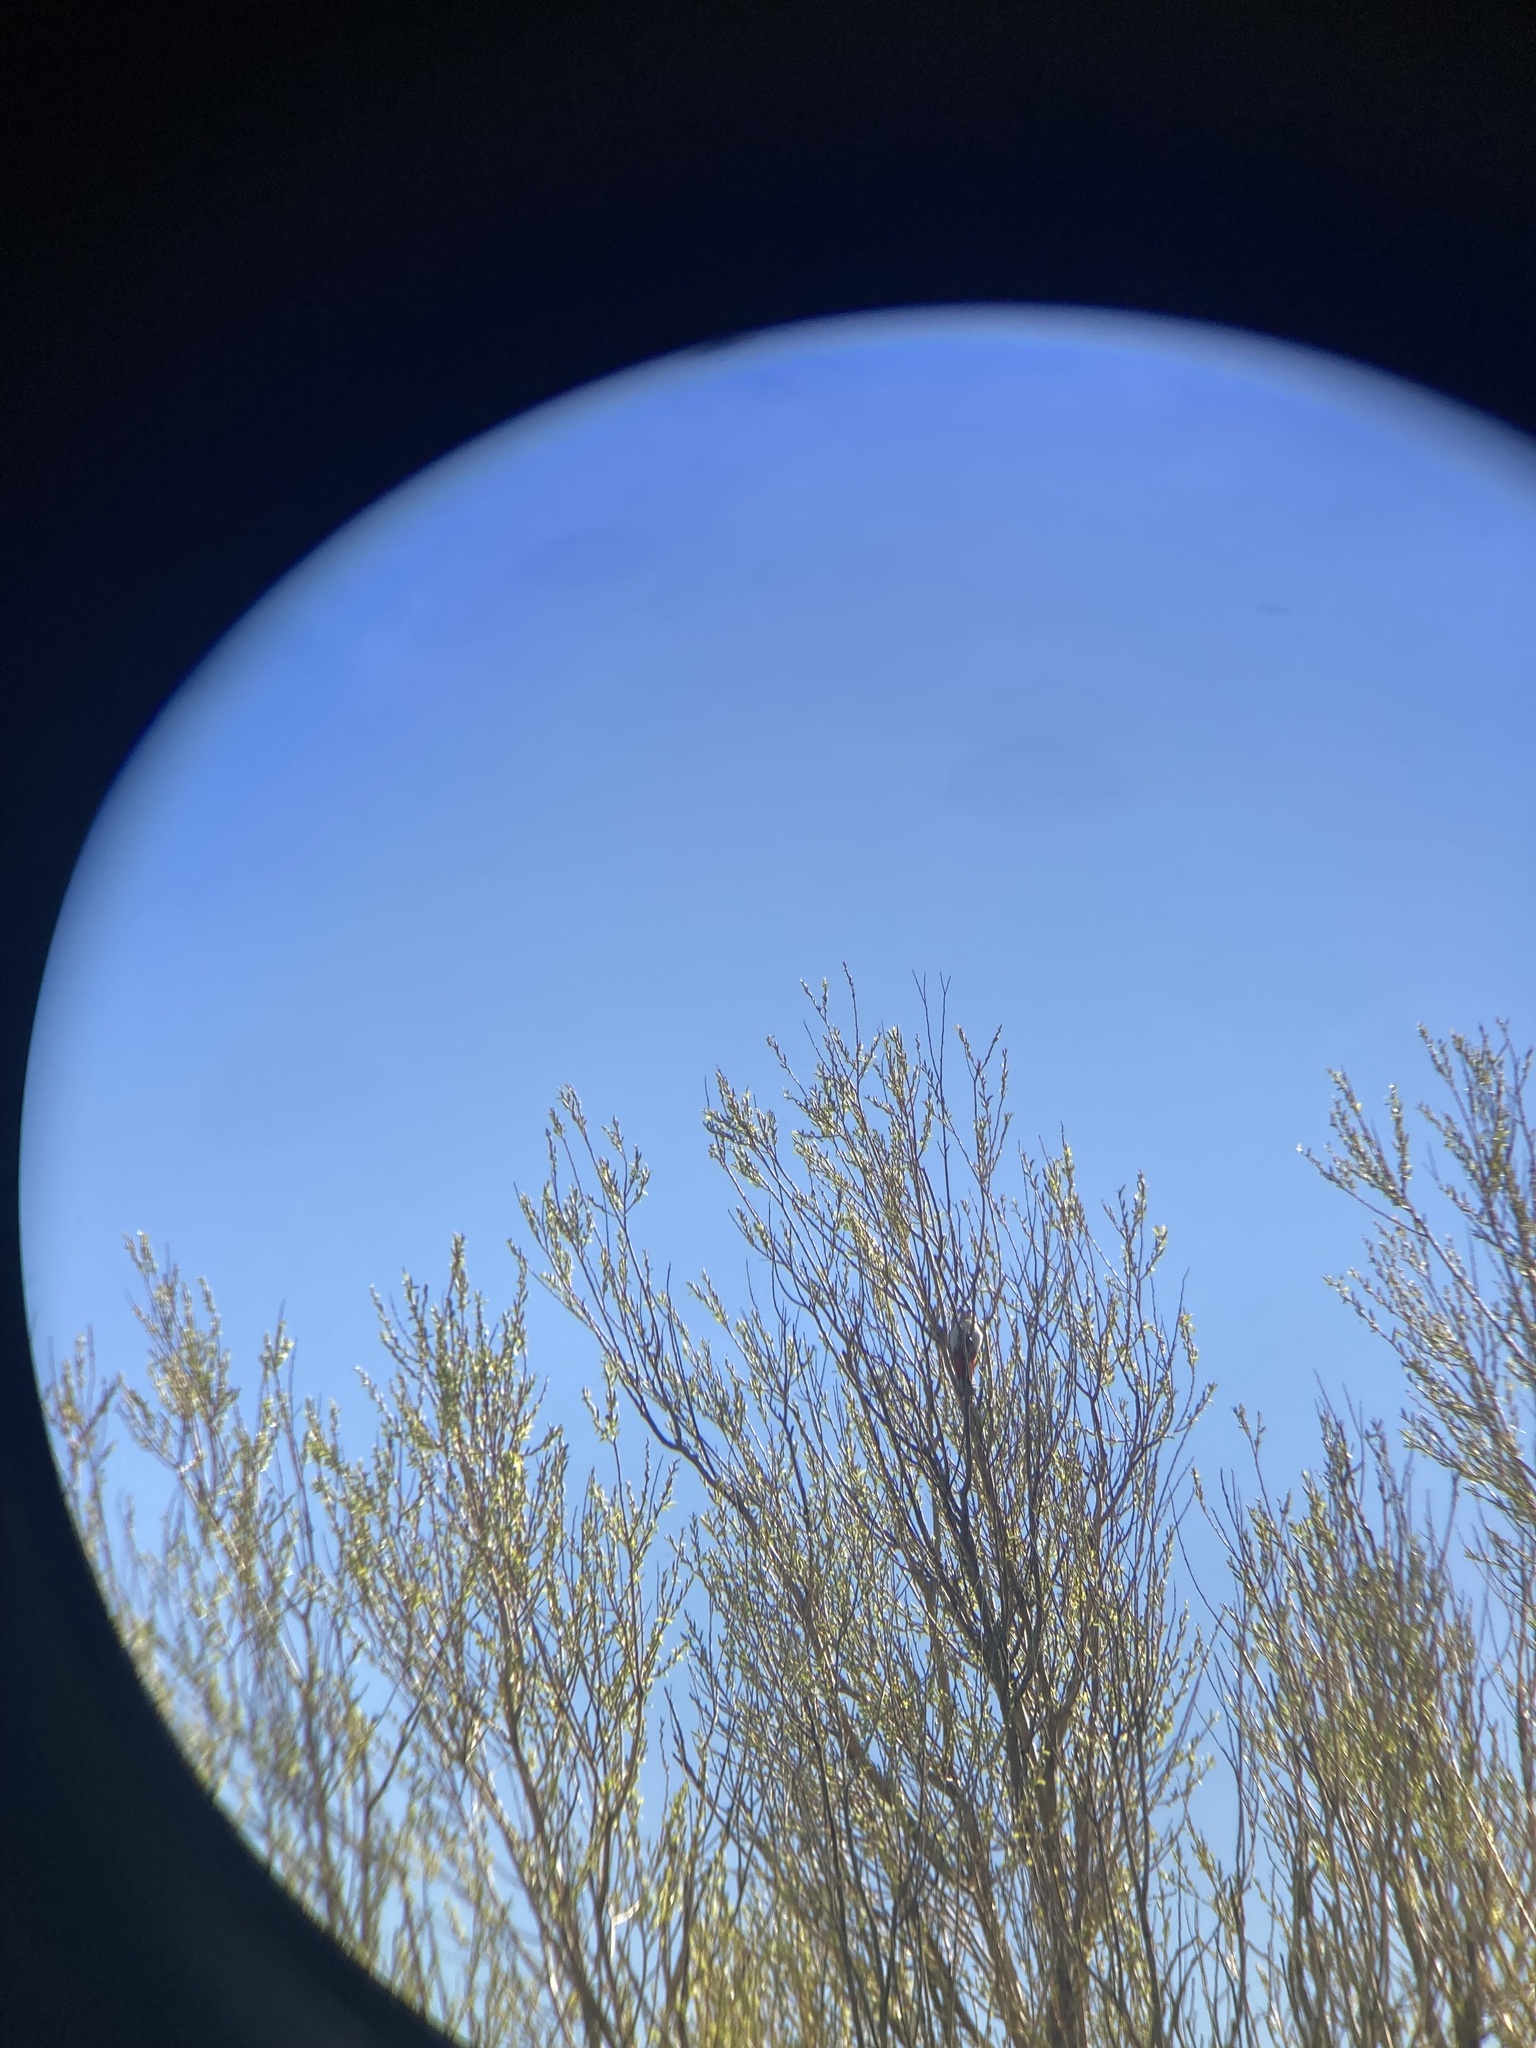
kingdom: Animalia
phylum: Chordata
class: Aves
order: Piciformes
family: Picidae
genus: Dendrocopos
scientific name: Dendrocopos major
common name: Great spotted woodpecker
